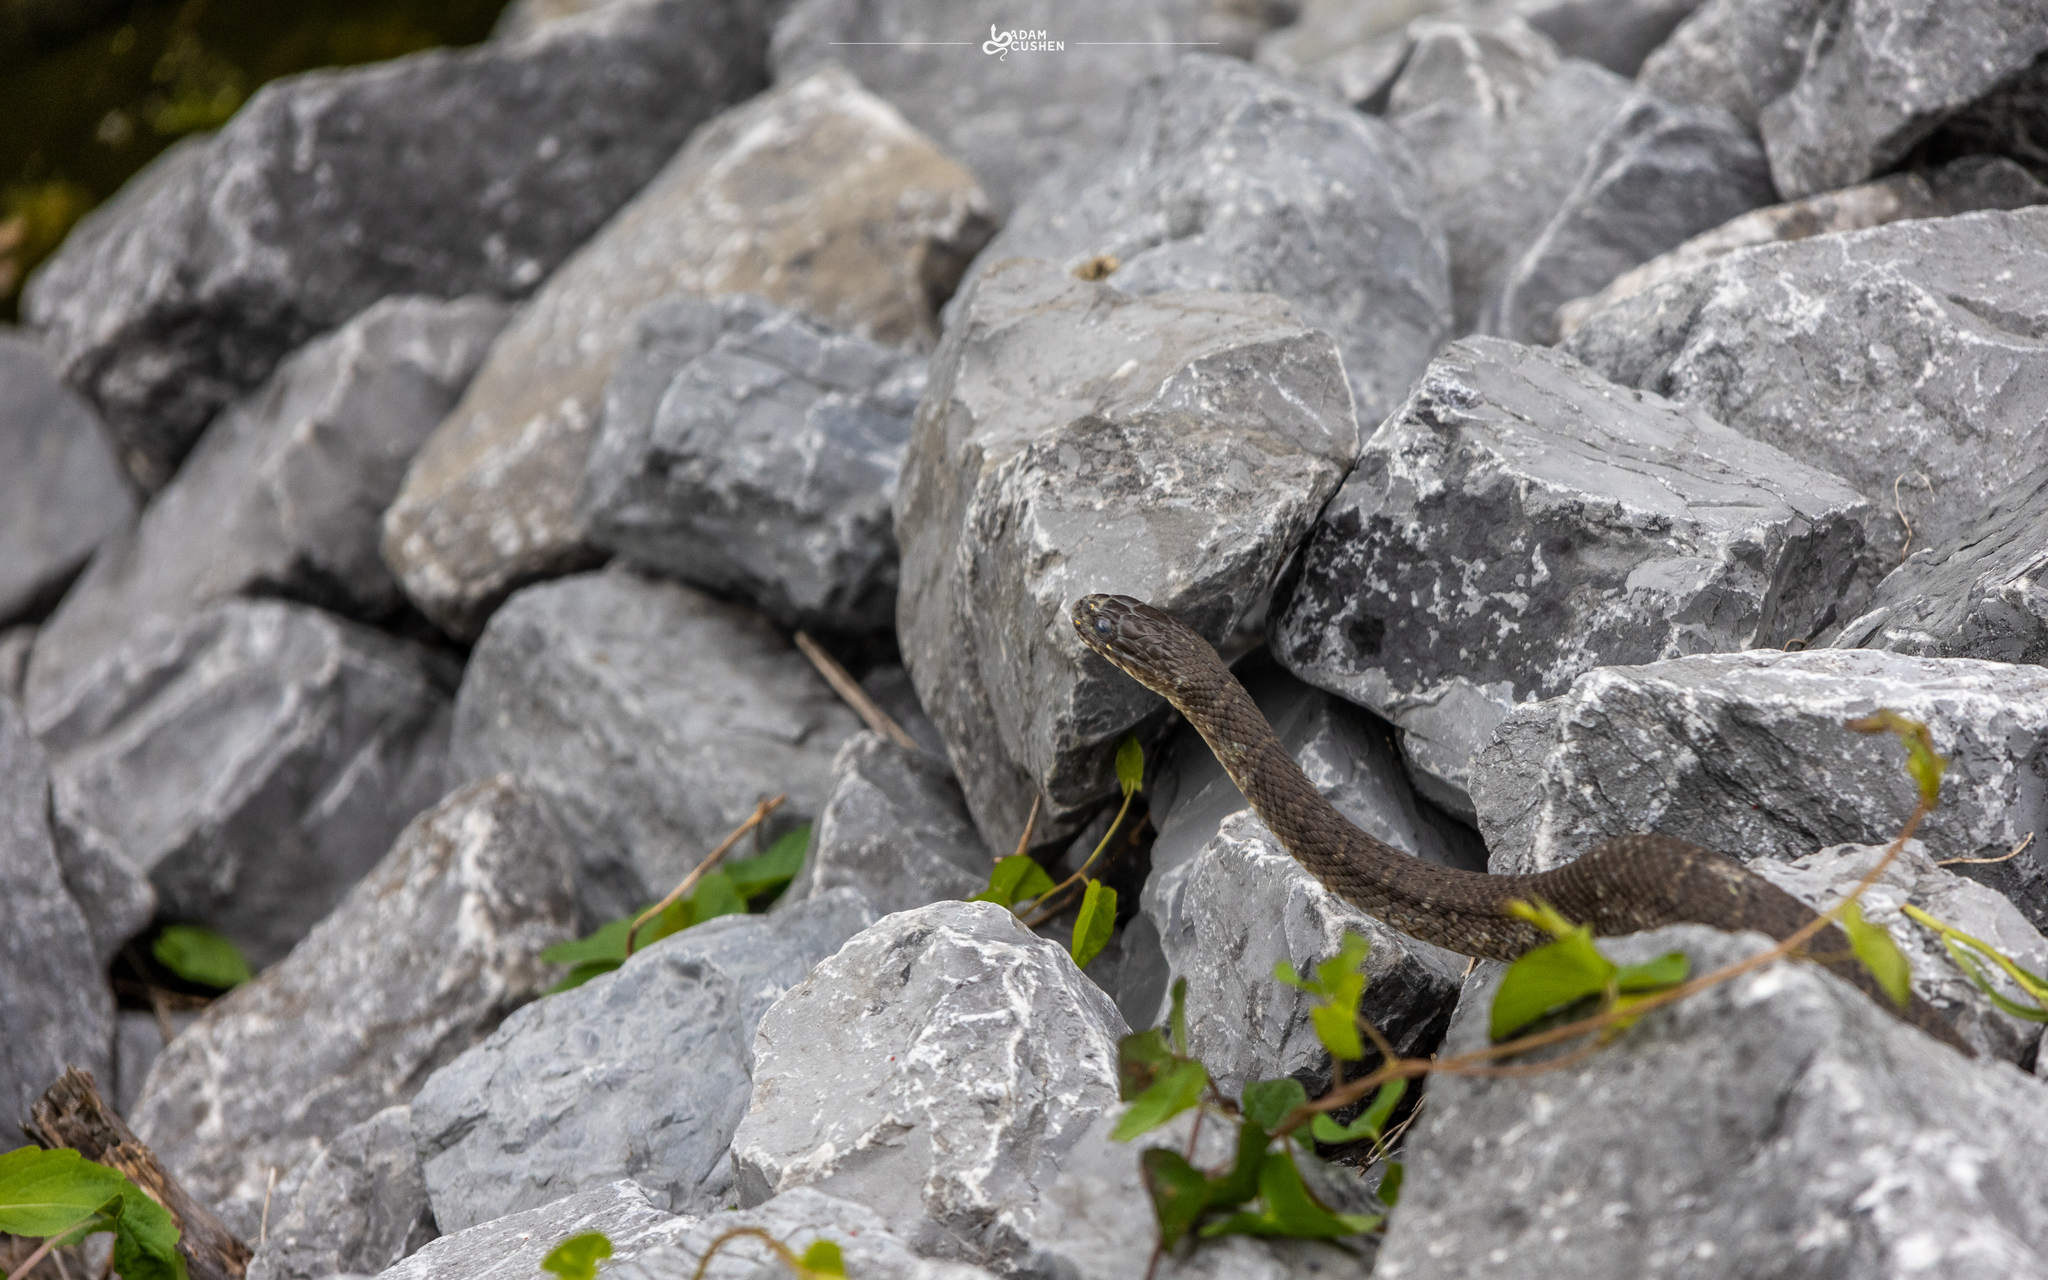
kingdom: Animalia
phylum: Chordata
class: Squamata
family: Colubridae
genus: Nerodia
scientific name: Nerodia sipedon
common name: Northern water snake
